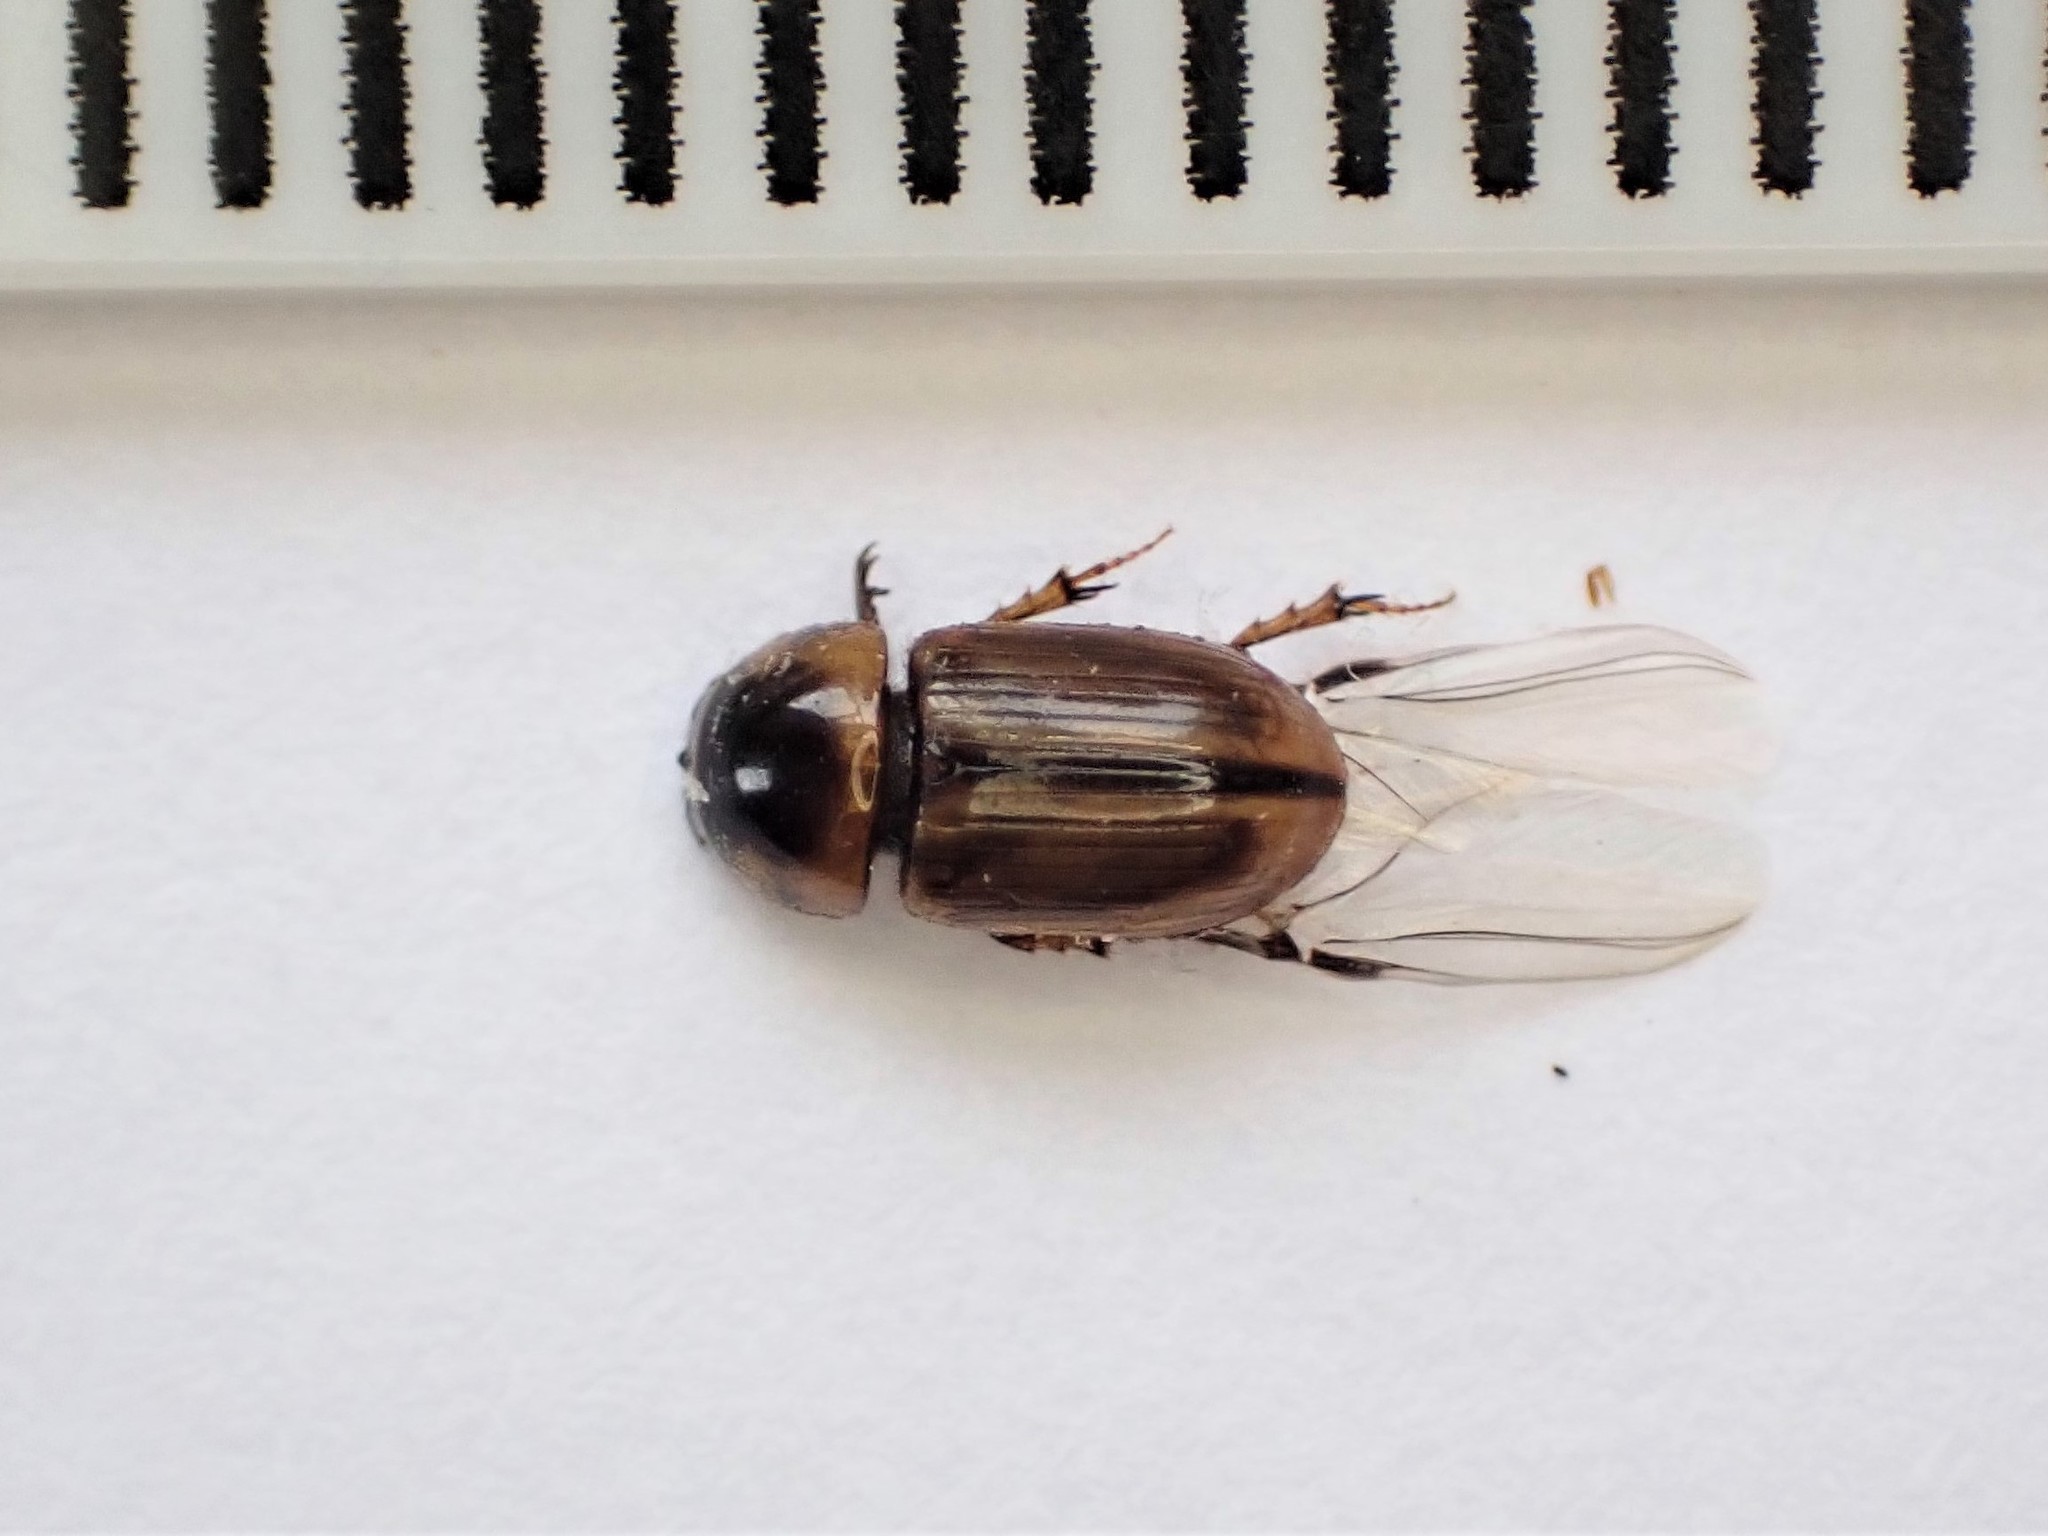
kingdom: Animalia
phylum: Arthropoda
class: Insecta
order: Coleoptera
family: Scarabaeidae
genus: Labarrus
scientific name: Labarrus lividus
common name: Scarab beetle
